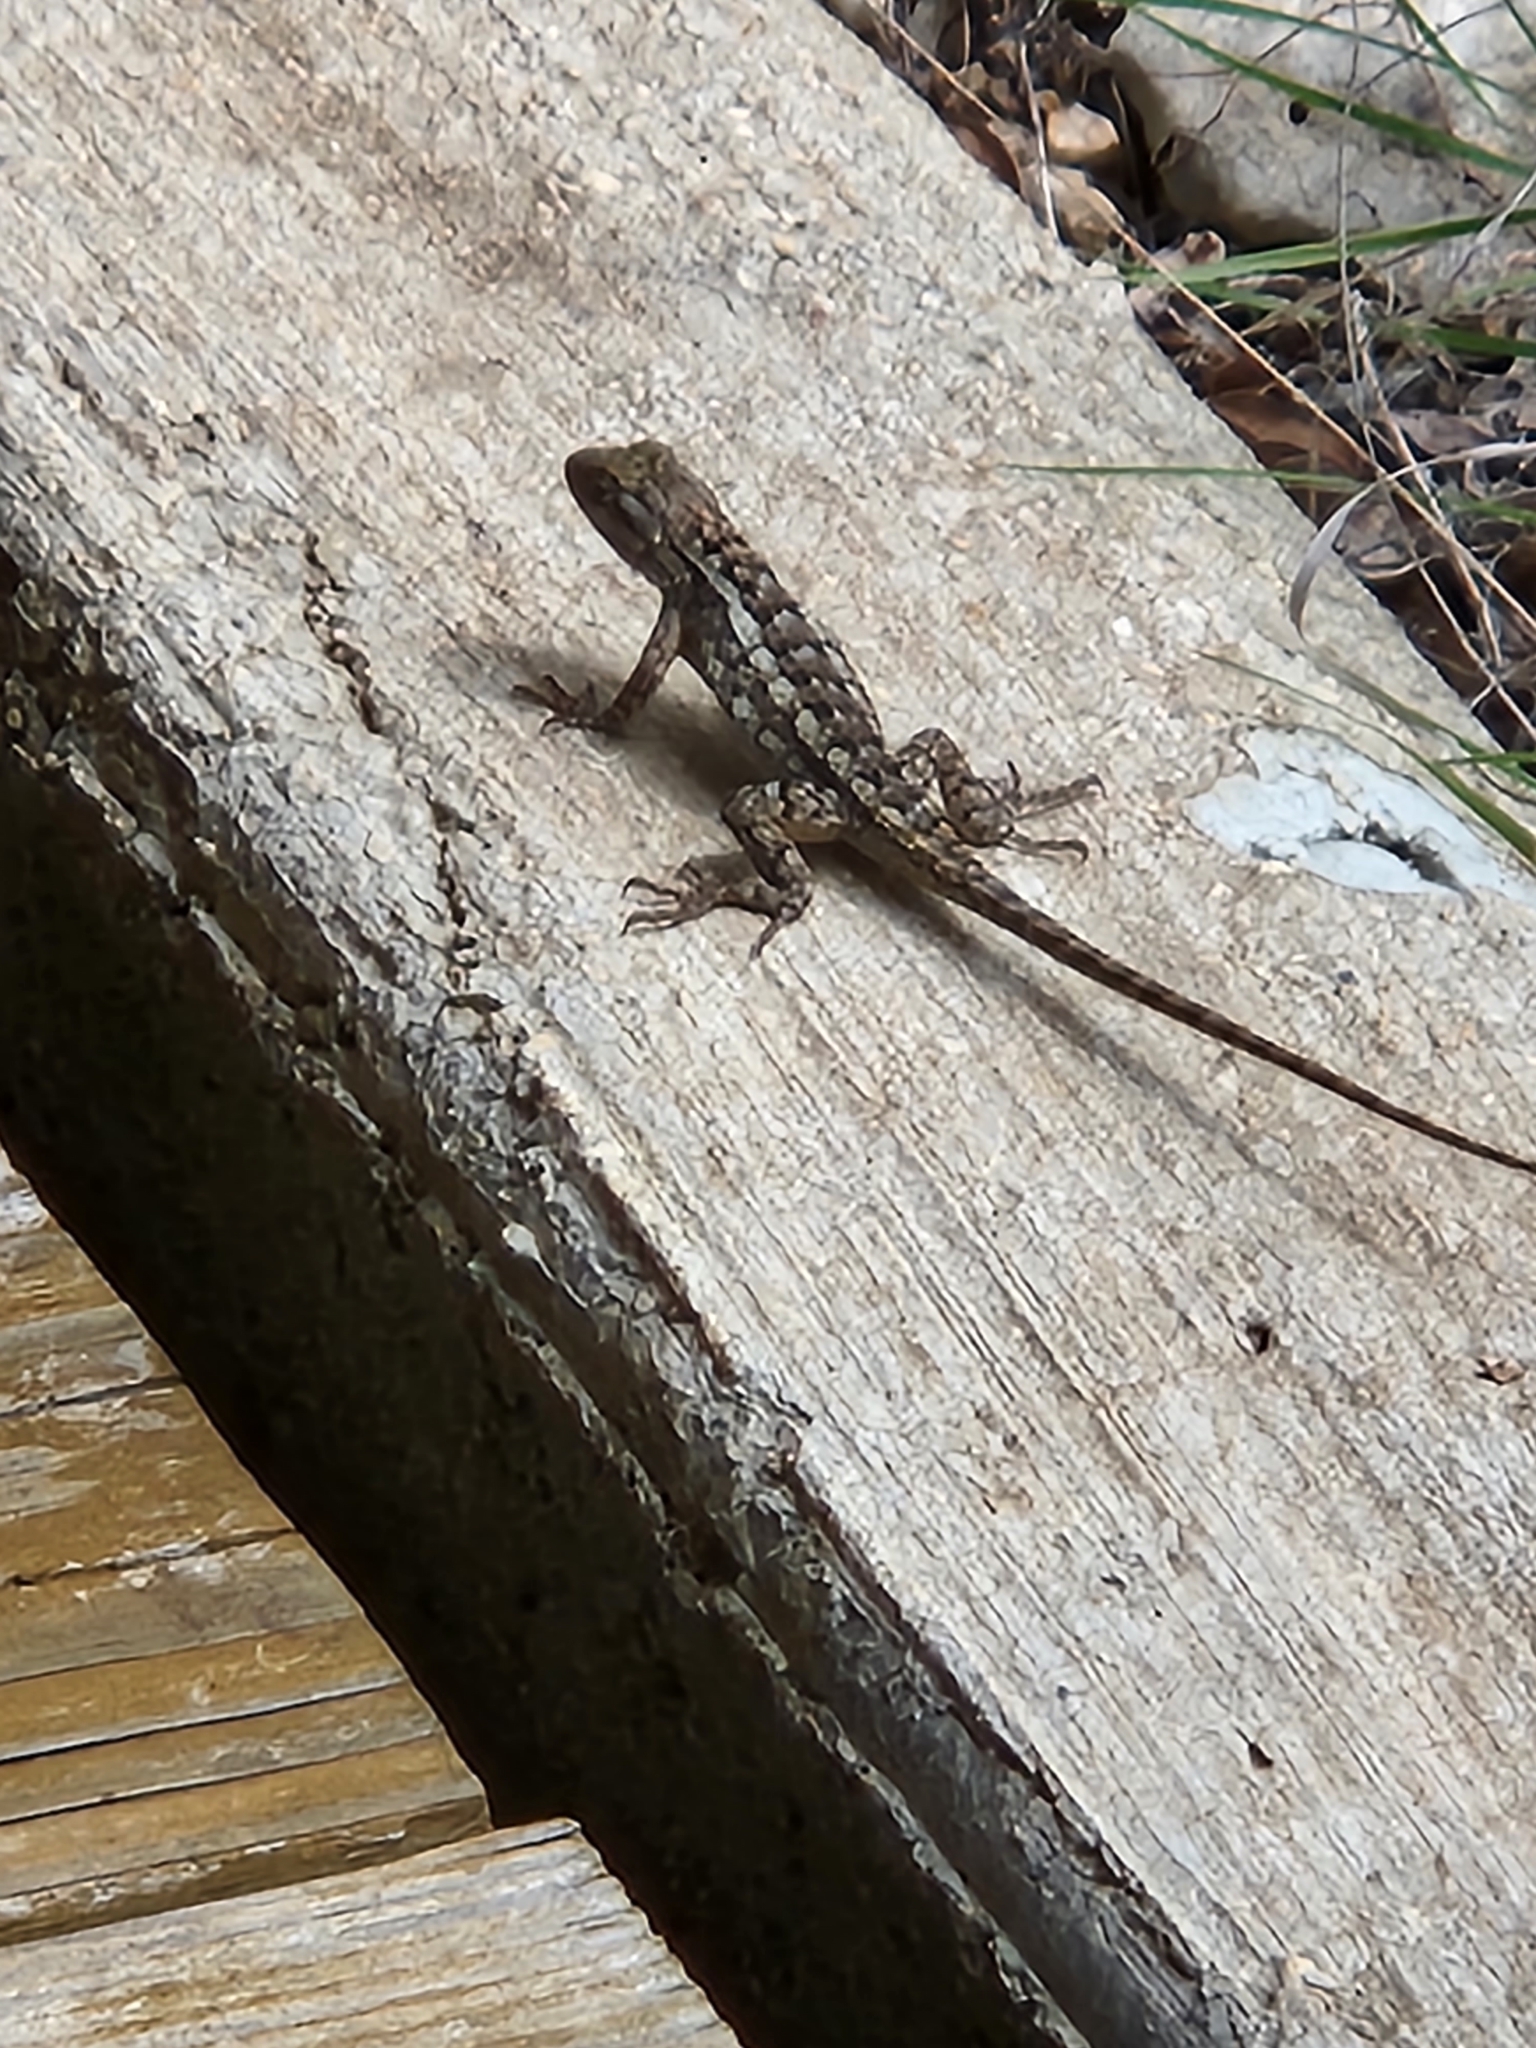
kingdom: Animalia
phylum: Chordata
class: Squamata
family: Phrynosomatidae
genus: Sceloporus
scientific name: Sceloporus olivaceus
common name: Texas spiny lizard
